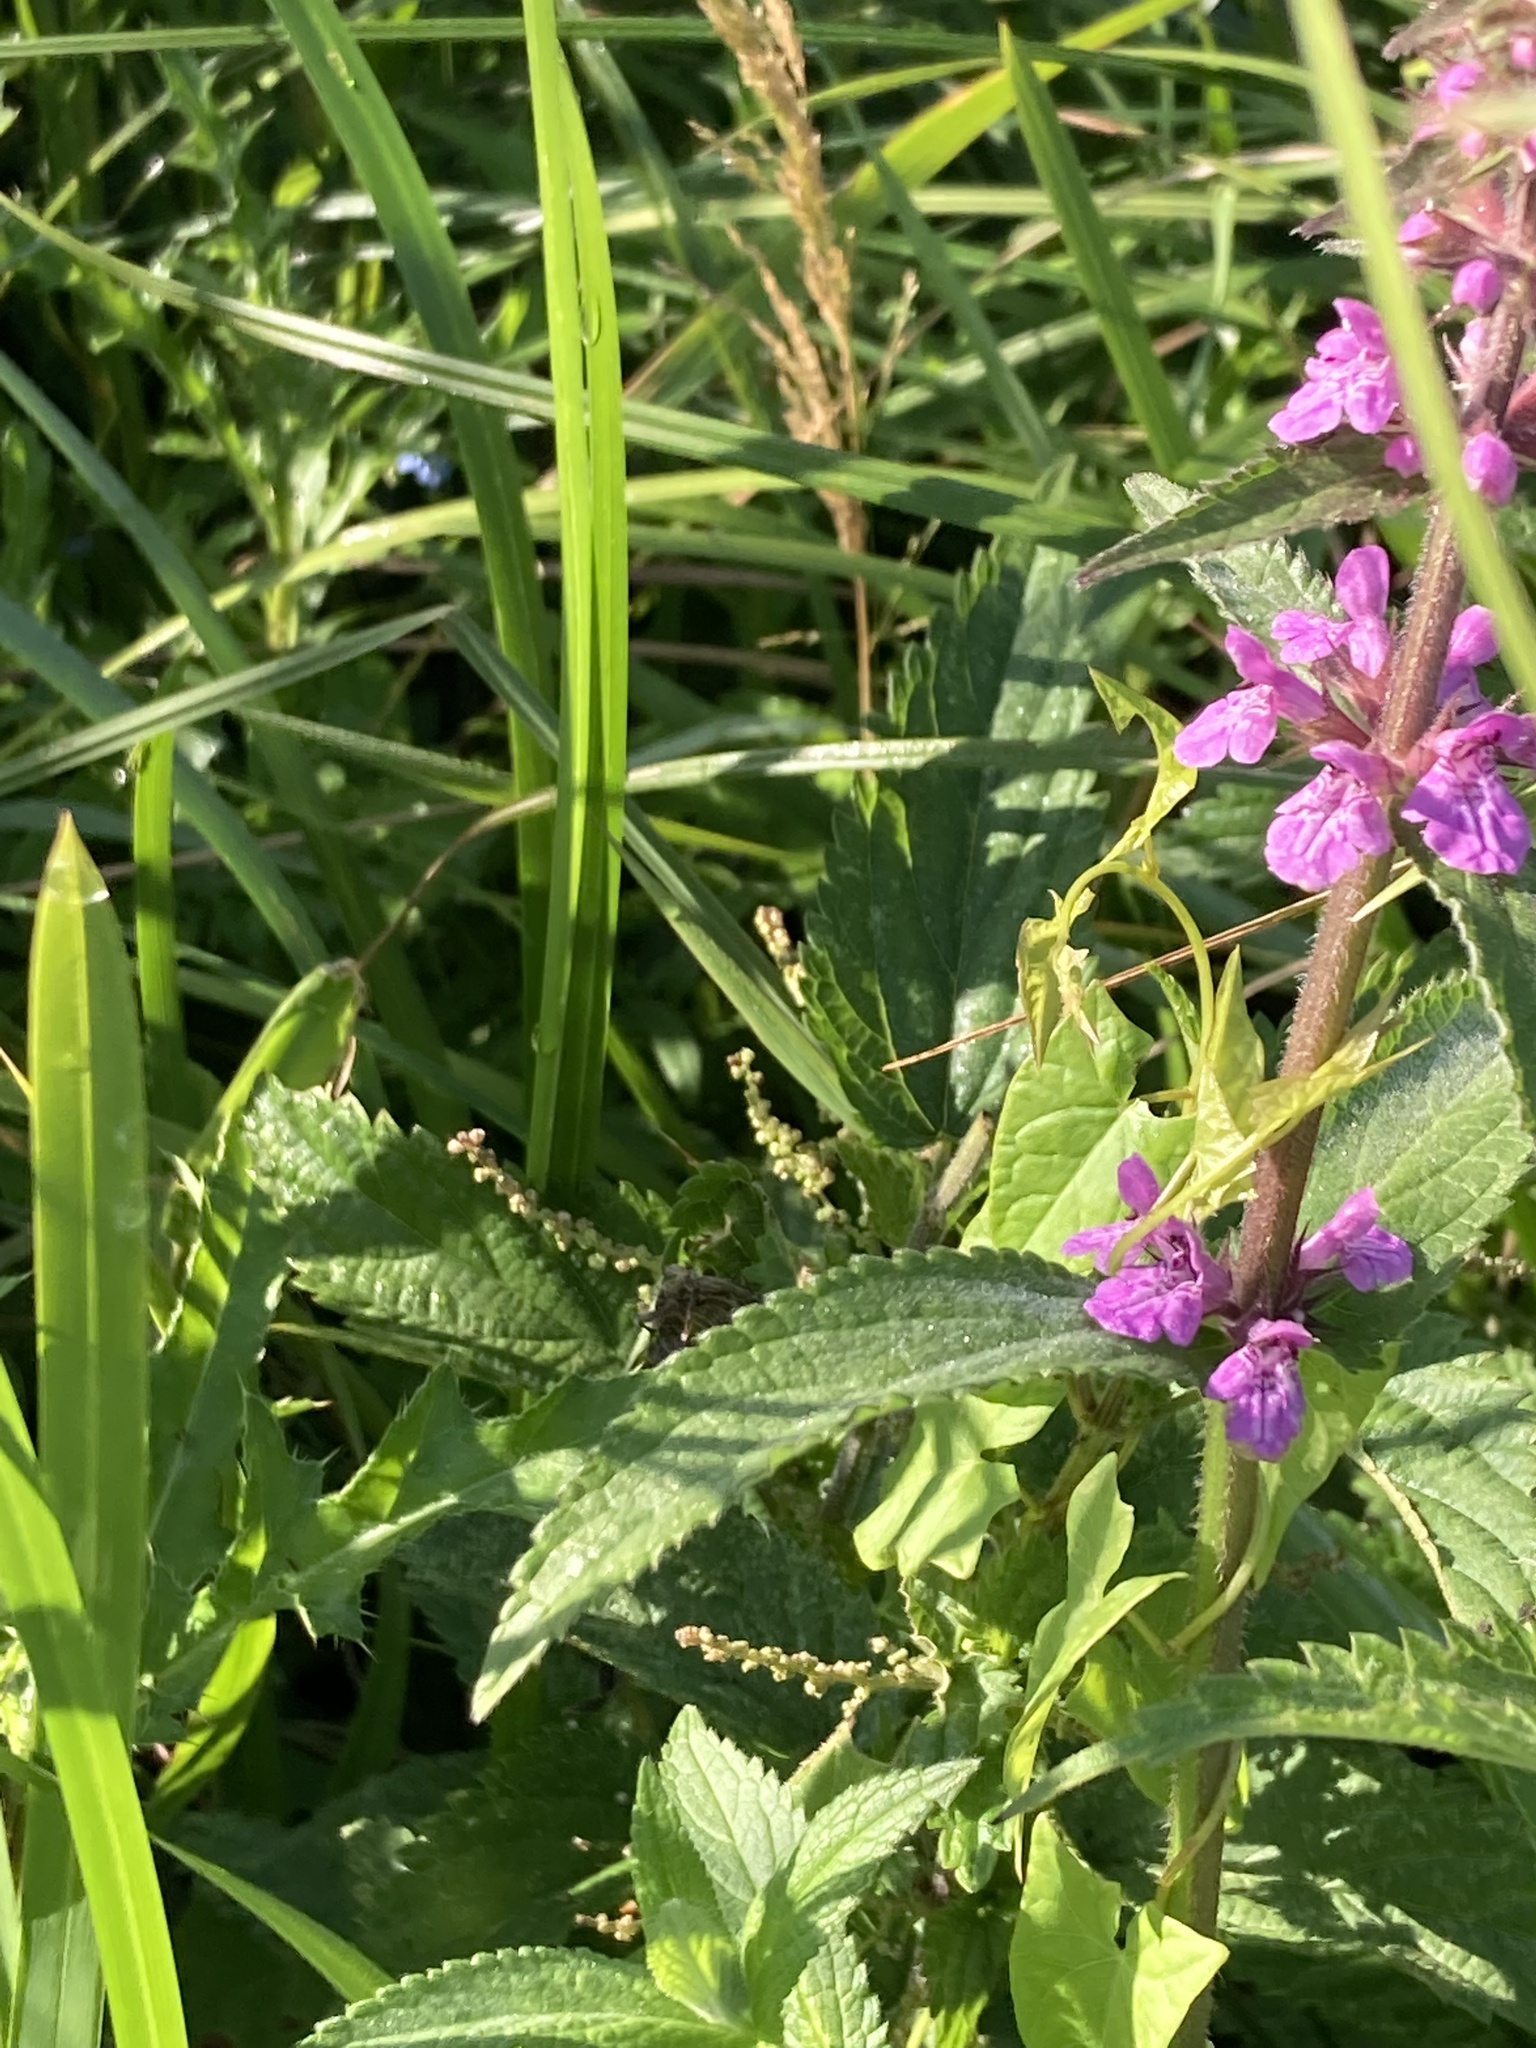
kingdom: Plantae
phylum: Tracheophyta
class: Magnoliopsida
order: Lamiales
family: Lamiaceae
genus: Stachys
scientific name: Stachys palustris
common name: Marsh woundwort
